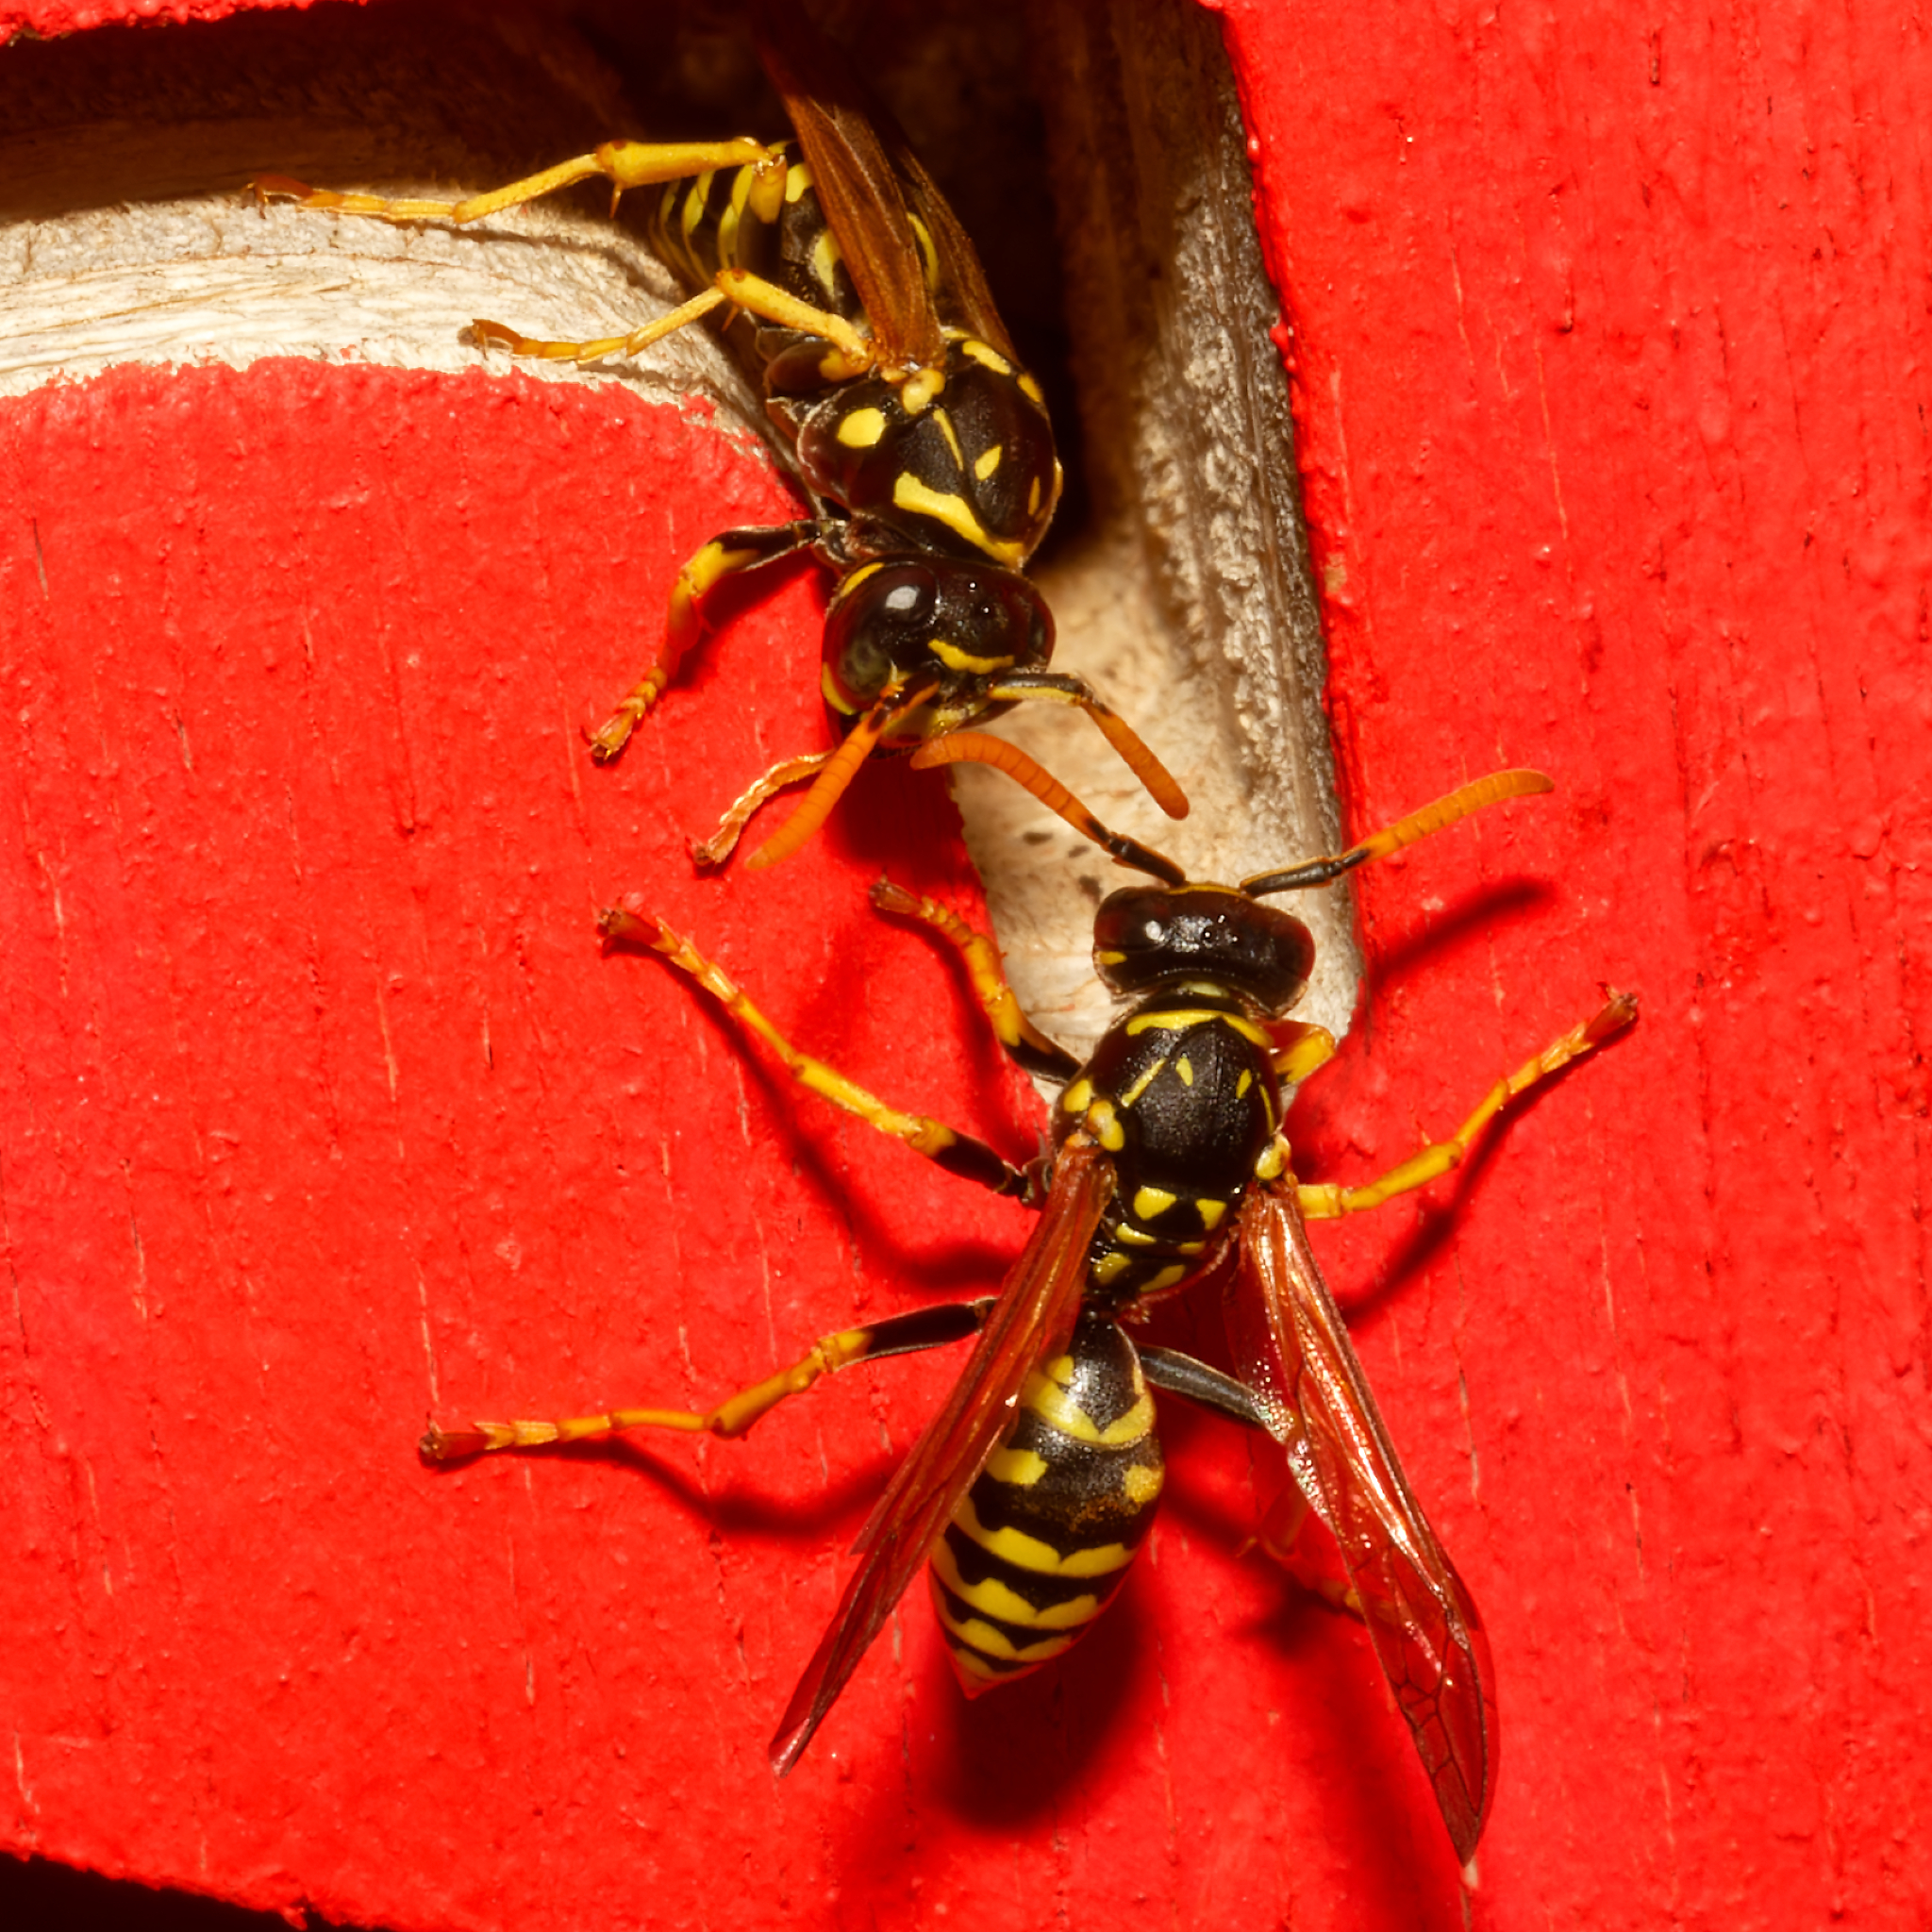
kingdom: Animalia
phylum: Arthropoda
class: Insecta
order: Hymenoptera
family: Eumenidae
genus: Polistes
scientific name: Polistes dominula
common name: Paper wasp
